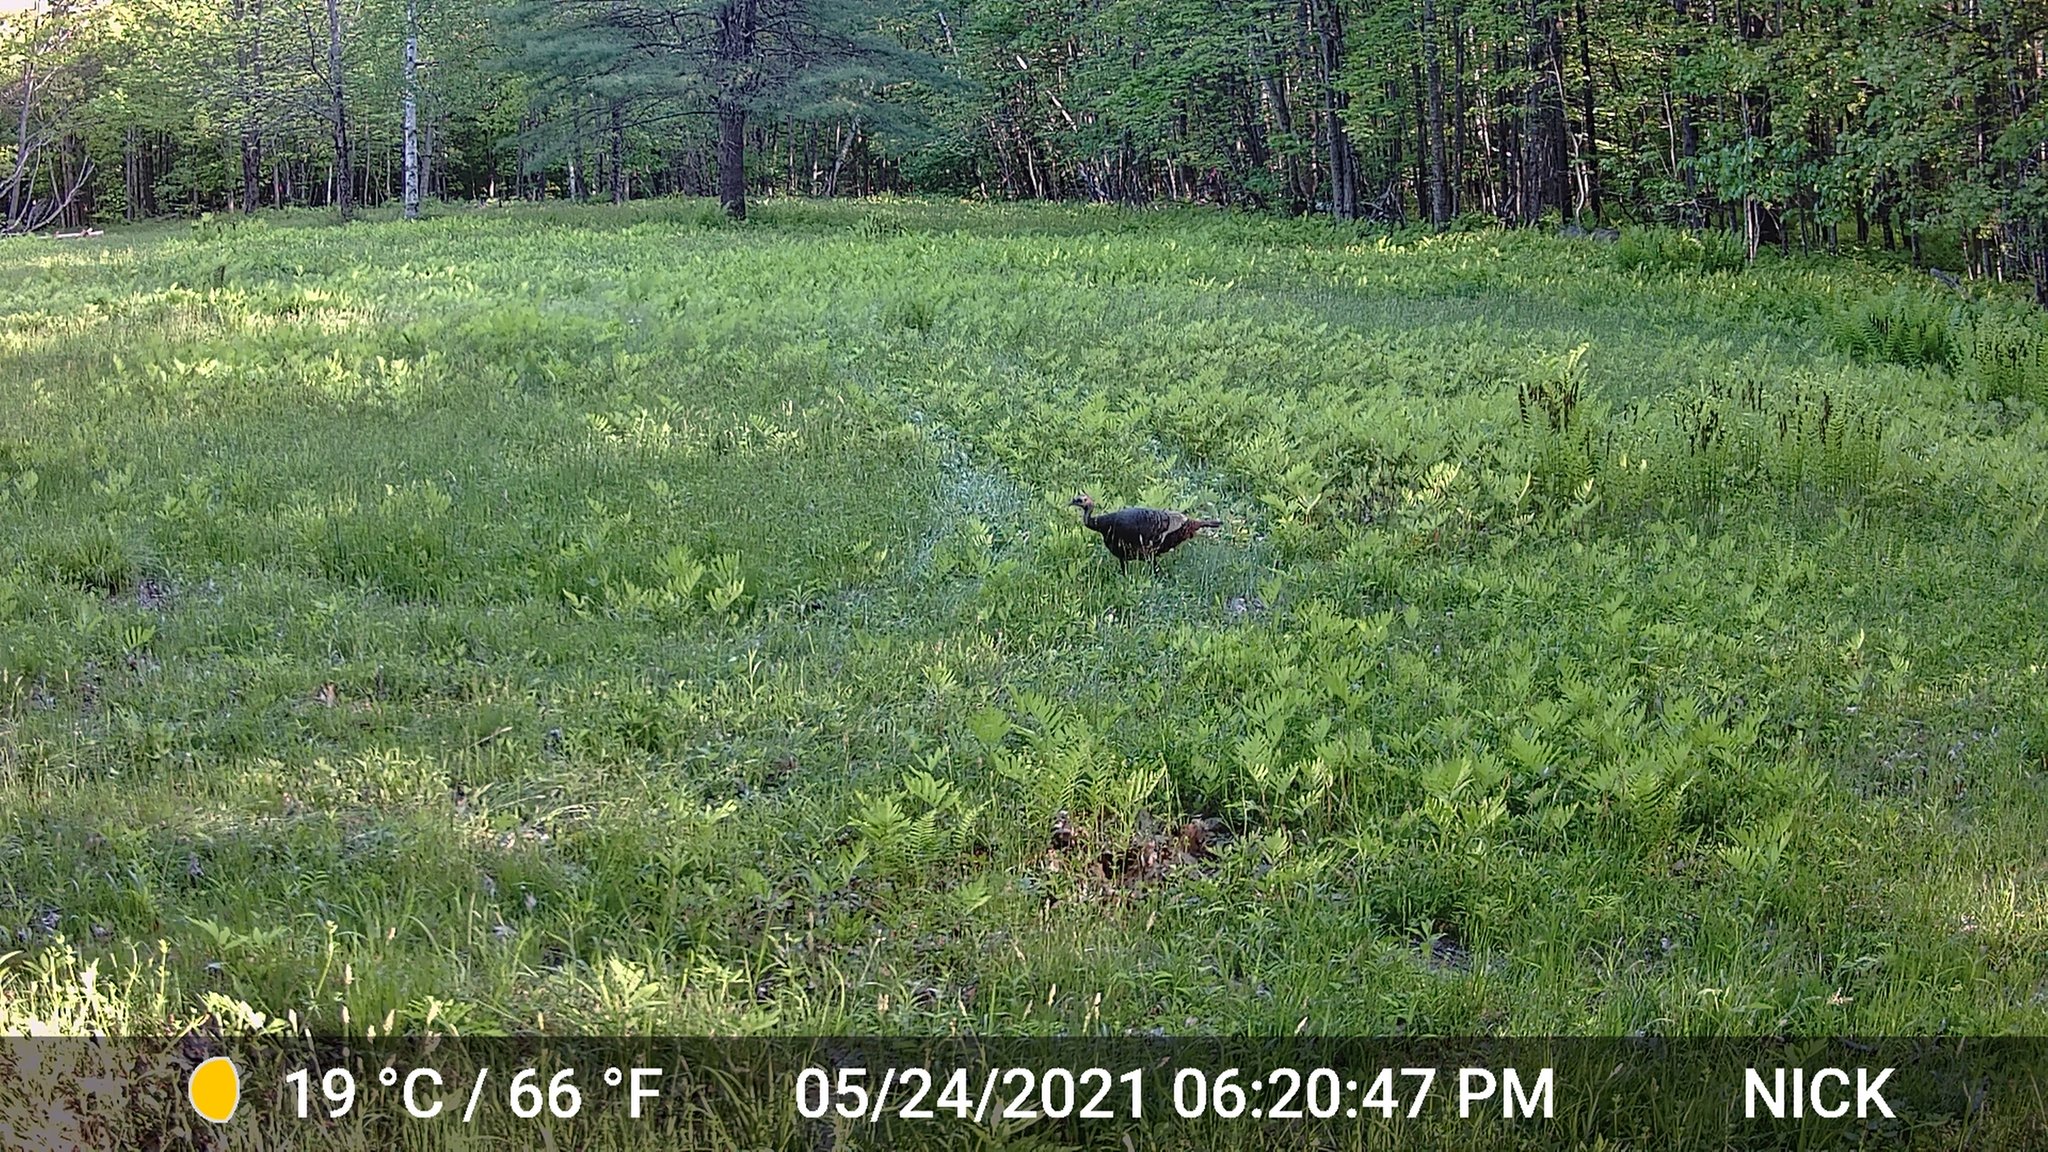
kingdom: Animalia
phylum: Chordata
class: Aves
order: Galliformes
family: Phasianidae
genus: Meleagris
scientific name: Meleagris gallopavo
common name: Wild turkey
